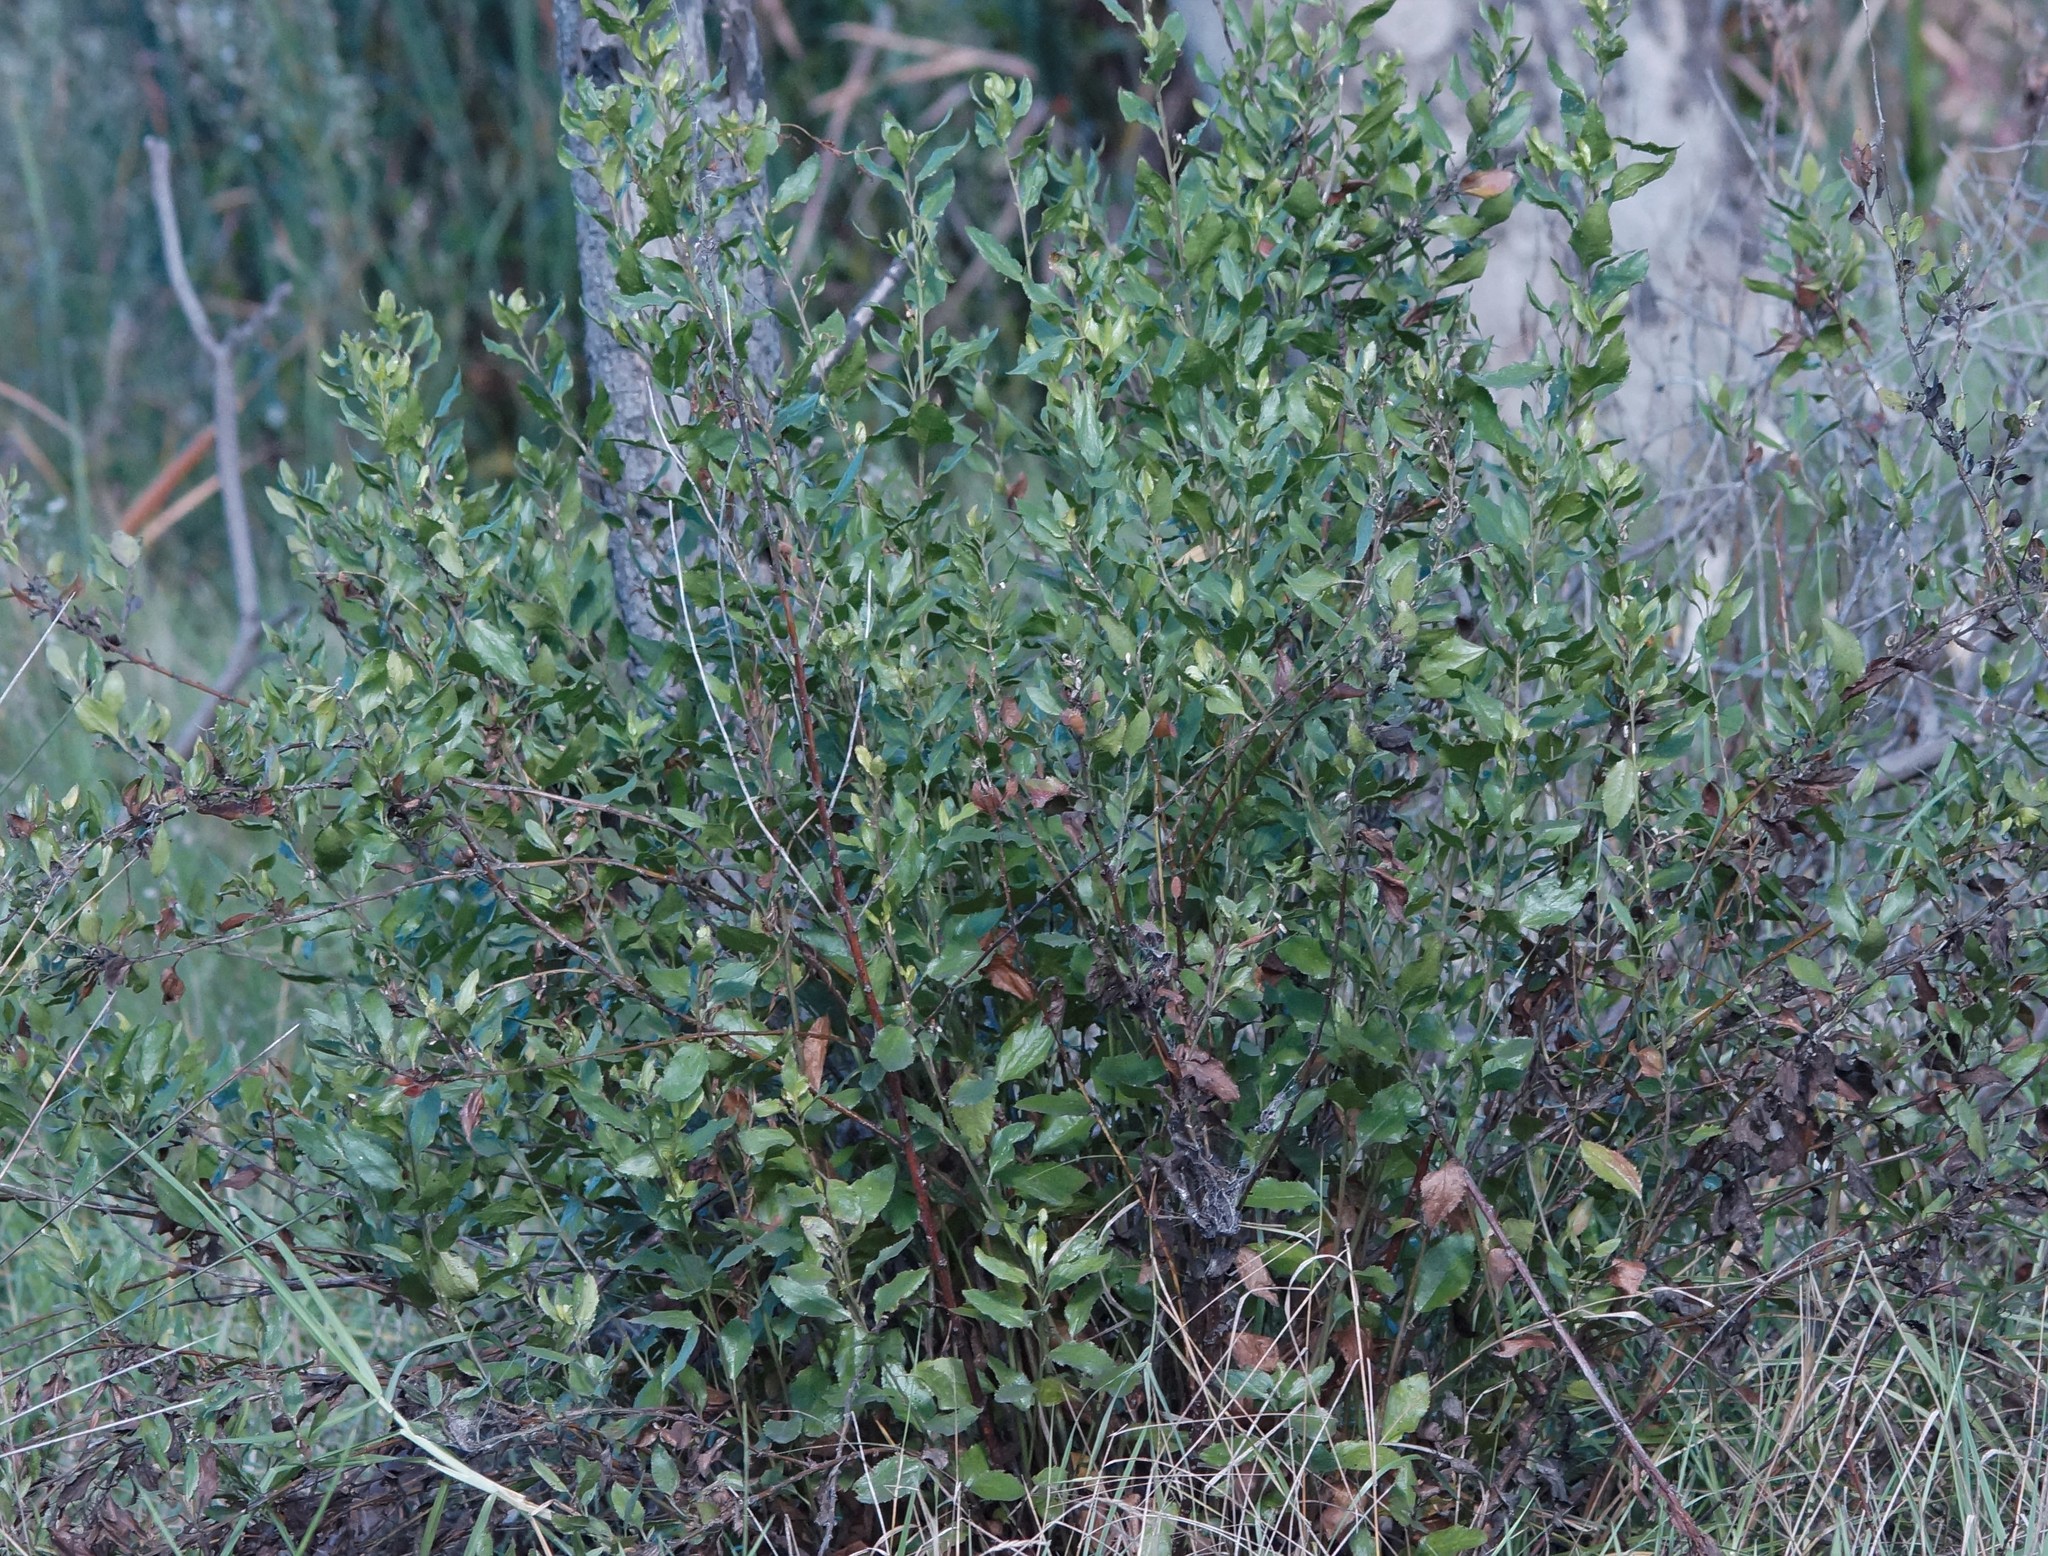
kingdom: Plantae
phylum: Tracheophyta
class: Magnoliopsida
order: Asterales
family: Goodeniaceae
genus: Goodenia
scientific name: Goodenia ovata
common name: Hop goodenia
